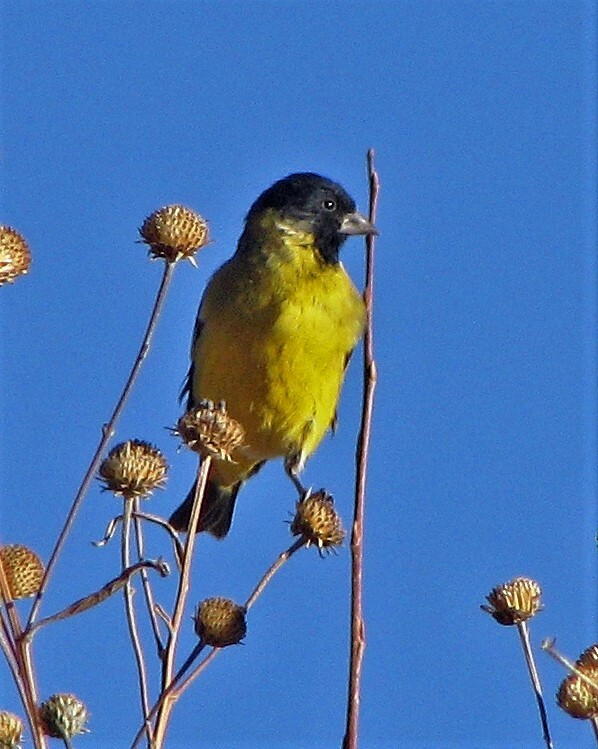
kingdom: Animalia
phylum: Chordata
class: Aves
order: Passeriformes
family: Fringillidae
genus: Spinus
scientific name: Spinus magellanicus
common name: Hooded siskin
